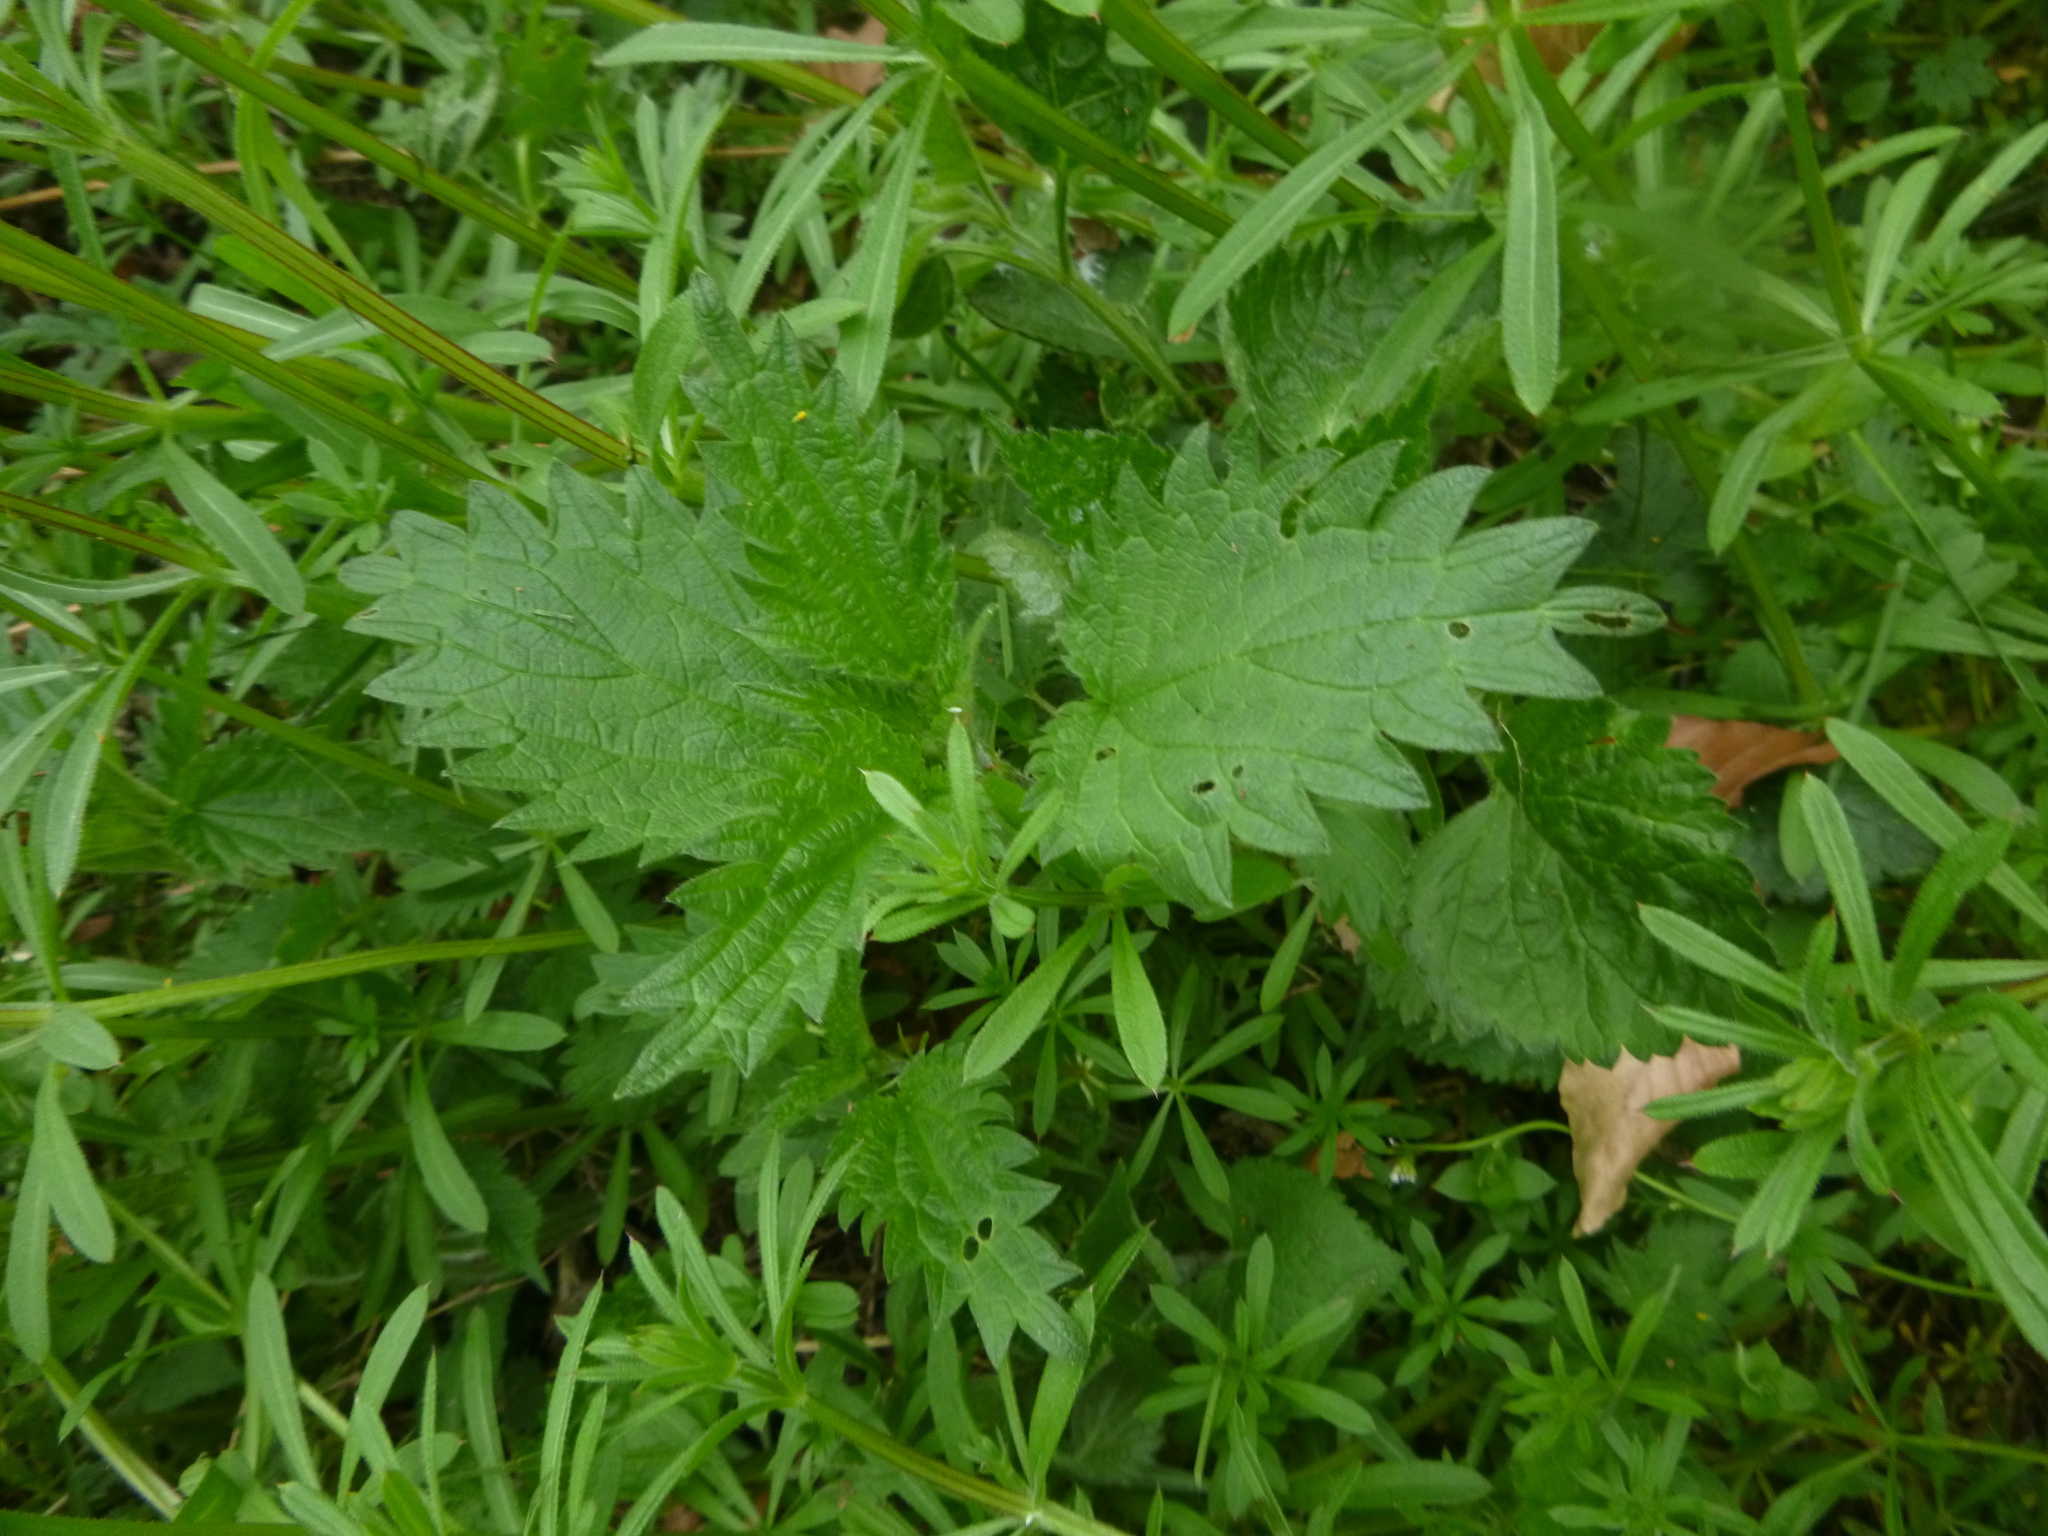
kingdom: Plantae
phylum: Tracheophyta
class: Magnoliopsida
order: Rosales
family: Urticaceae
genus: Urtica
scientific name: Urtica dioica
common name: Common nettle
